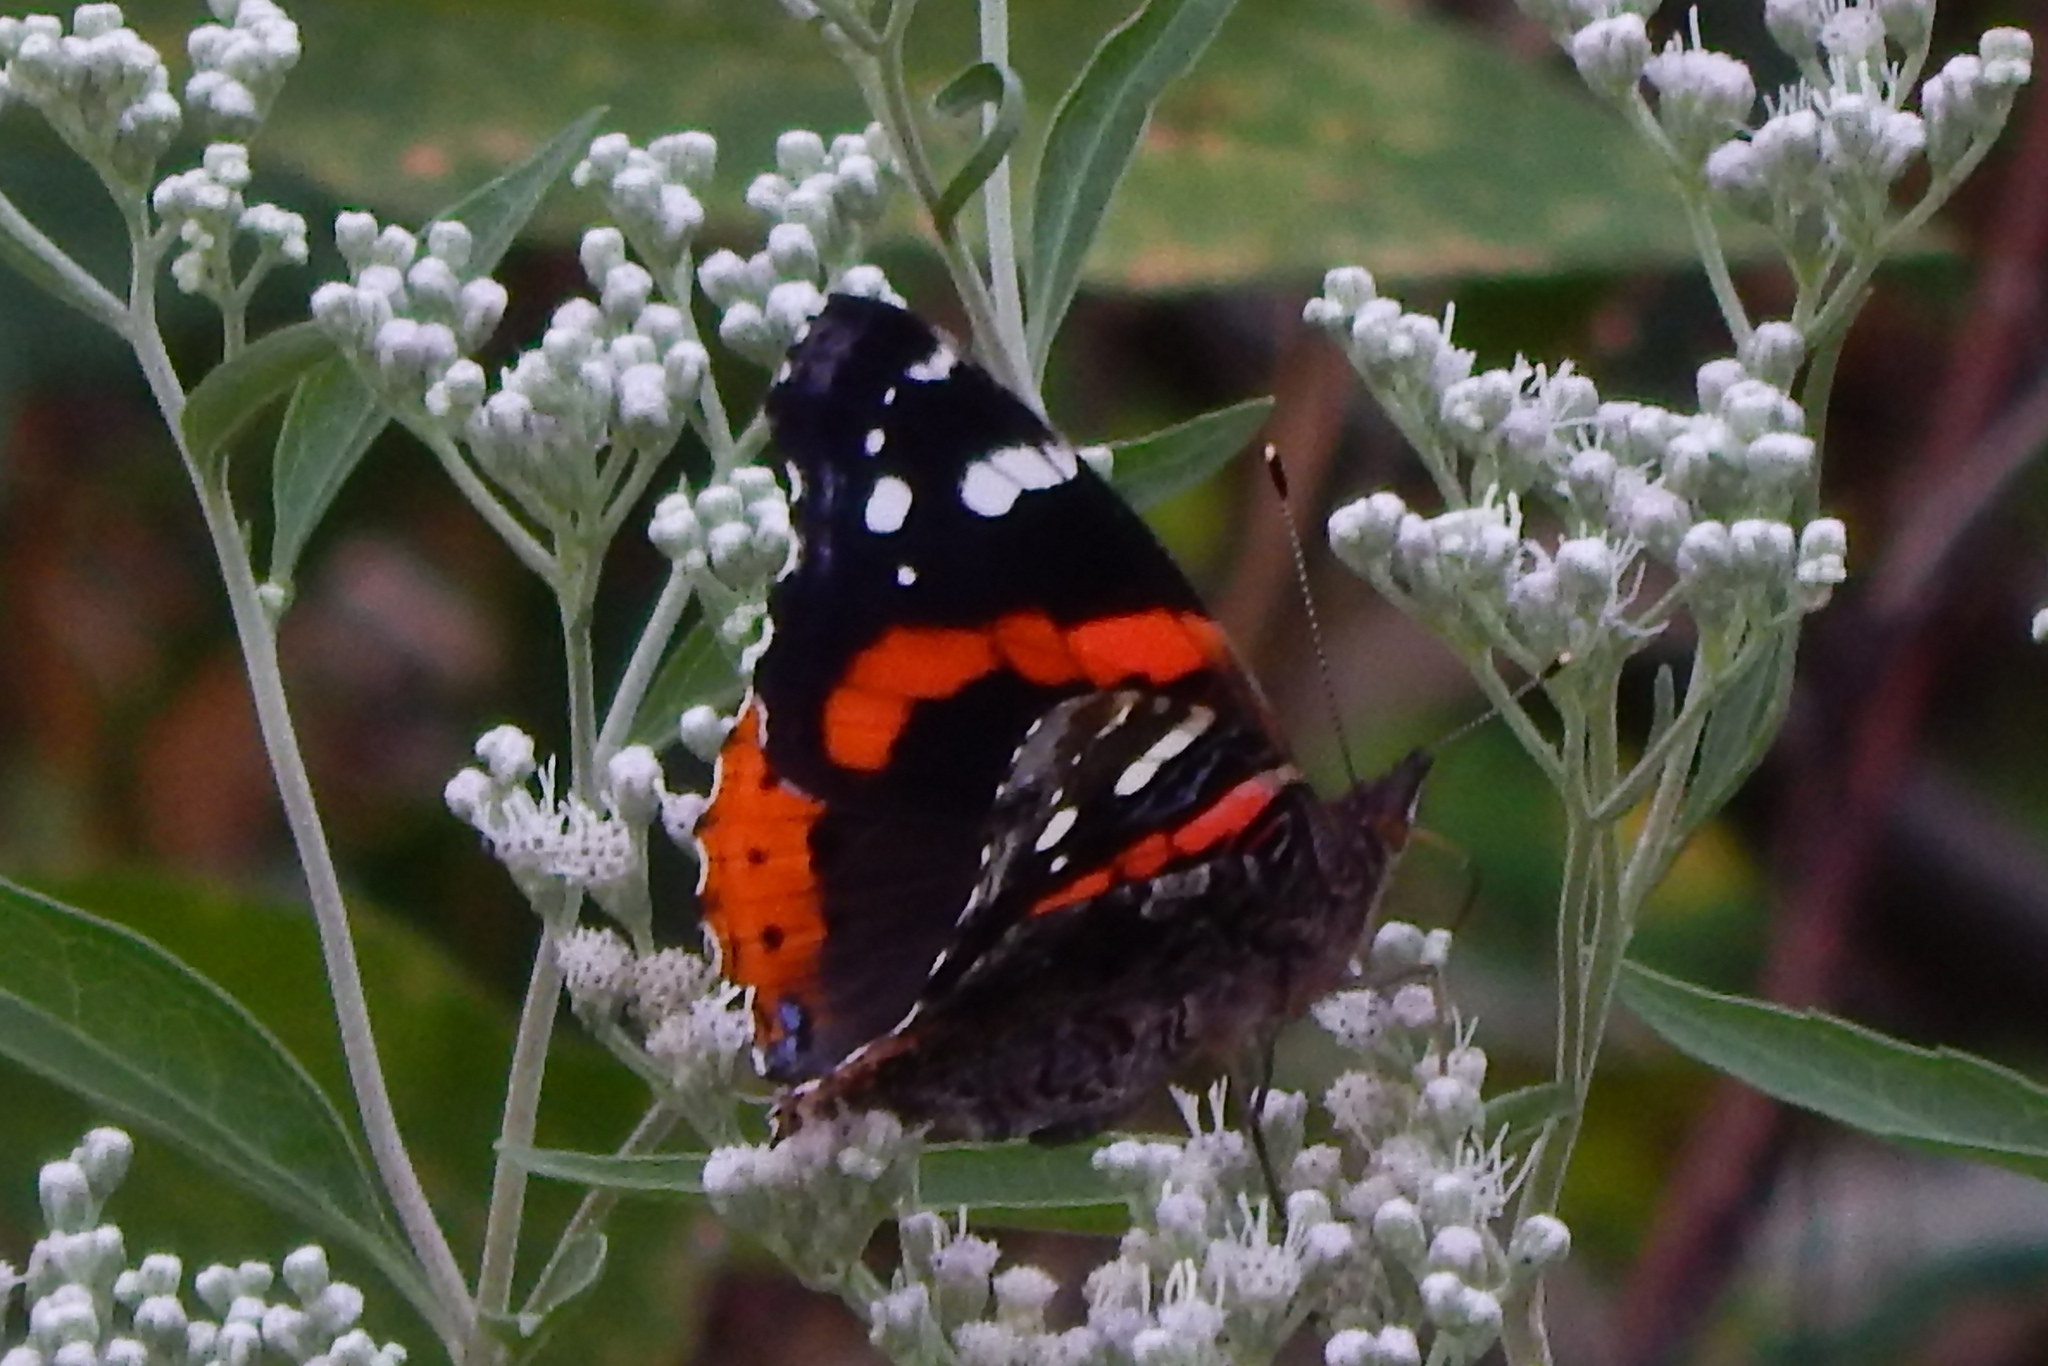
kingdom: Animalia
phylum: Arthropoda
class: Insecta
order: Lepidoptera
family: Nymphalidae
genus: Vanessa
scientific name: Vanessa atalanta
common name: Red admiral
